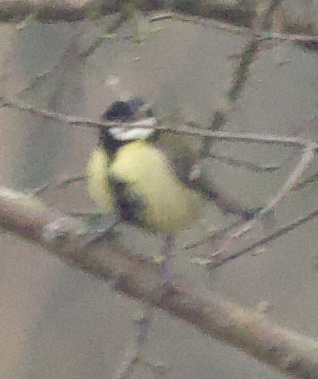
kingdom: Animalia
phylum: Chordata
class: Aves
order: Passeriformes
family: Paridae
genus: Parus
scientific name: Parus major
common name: Great tit
